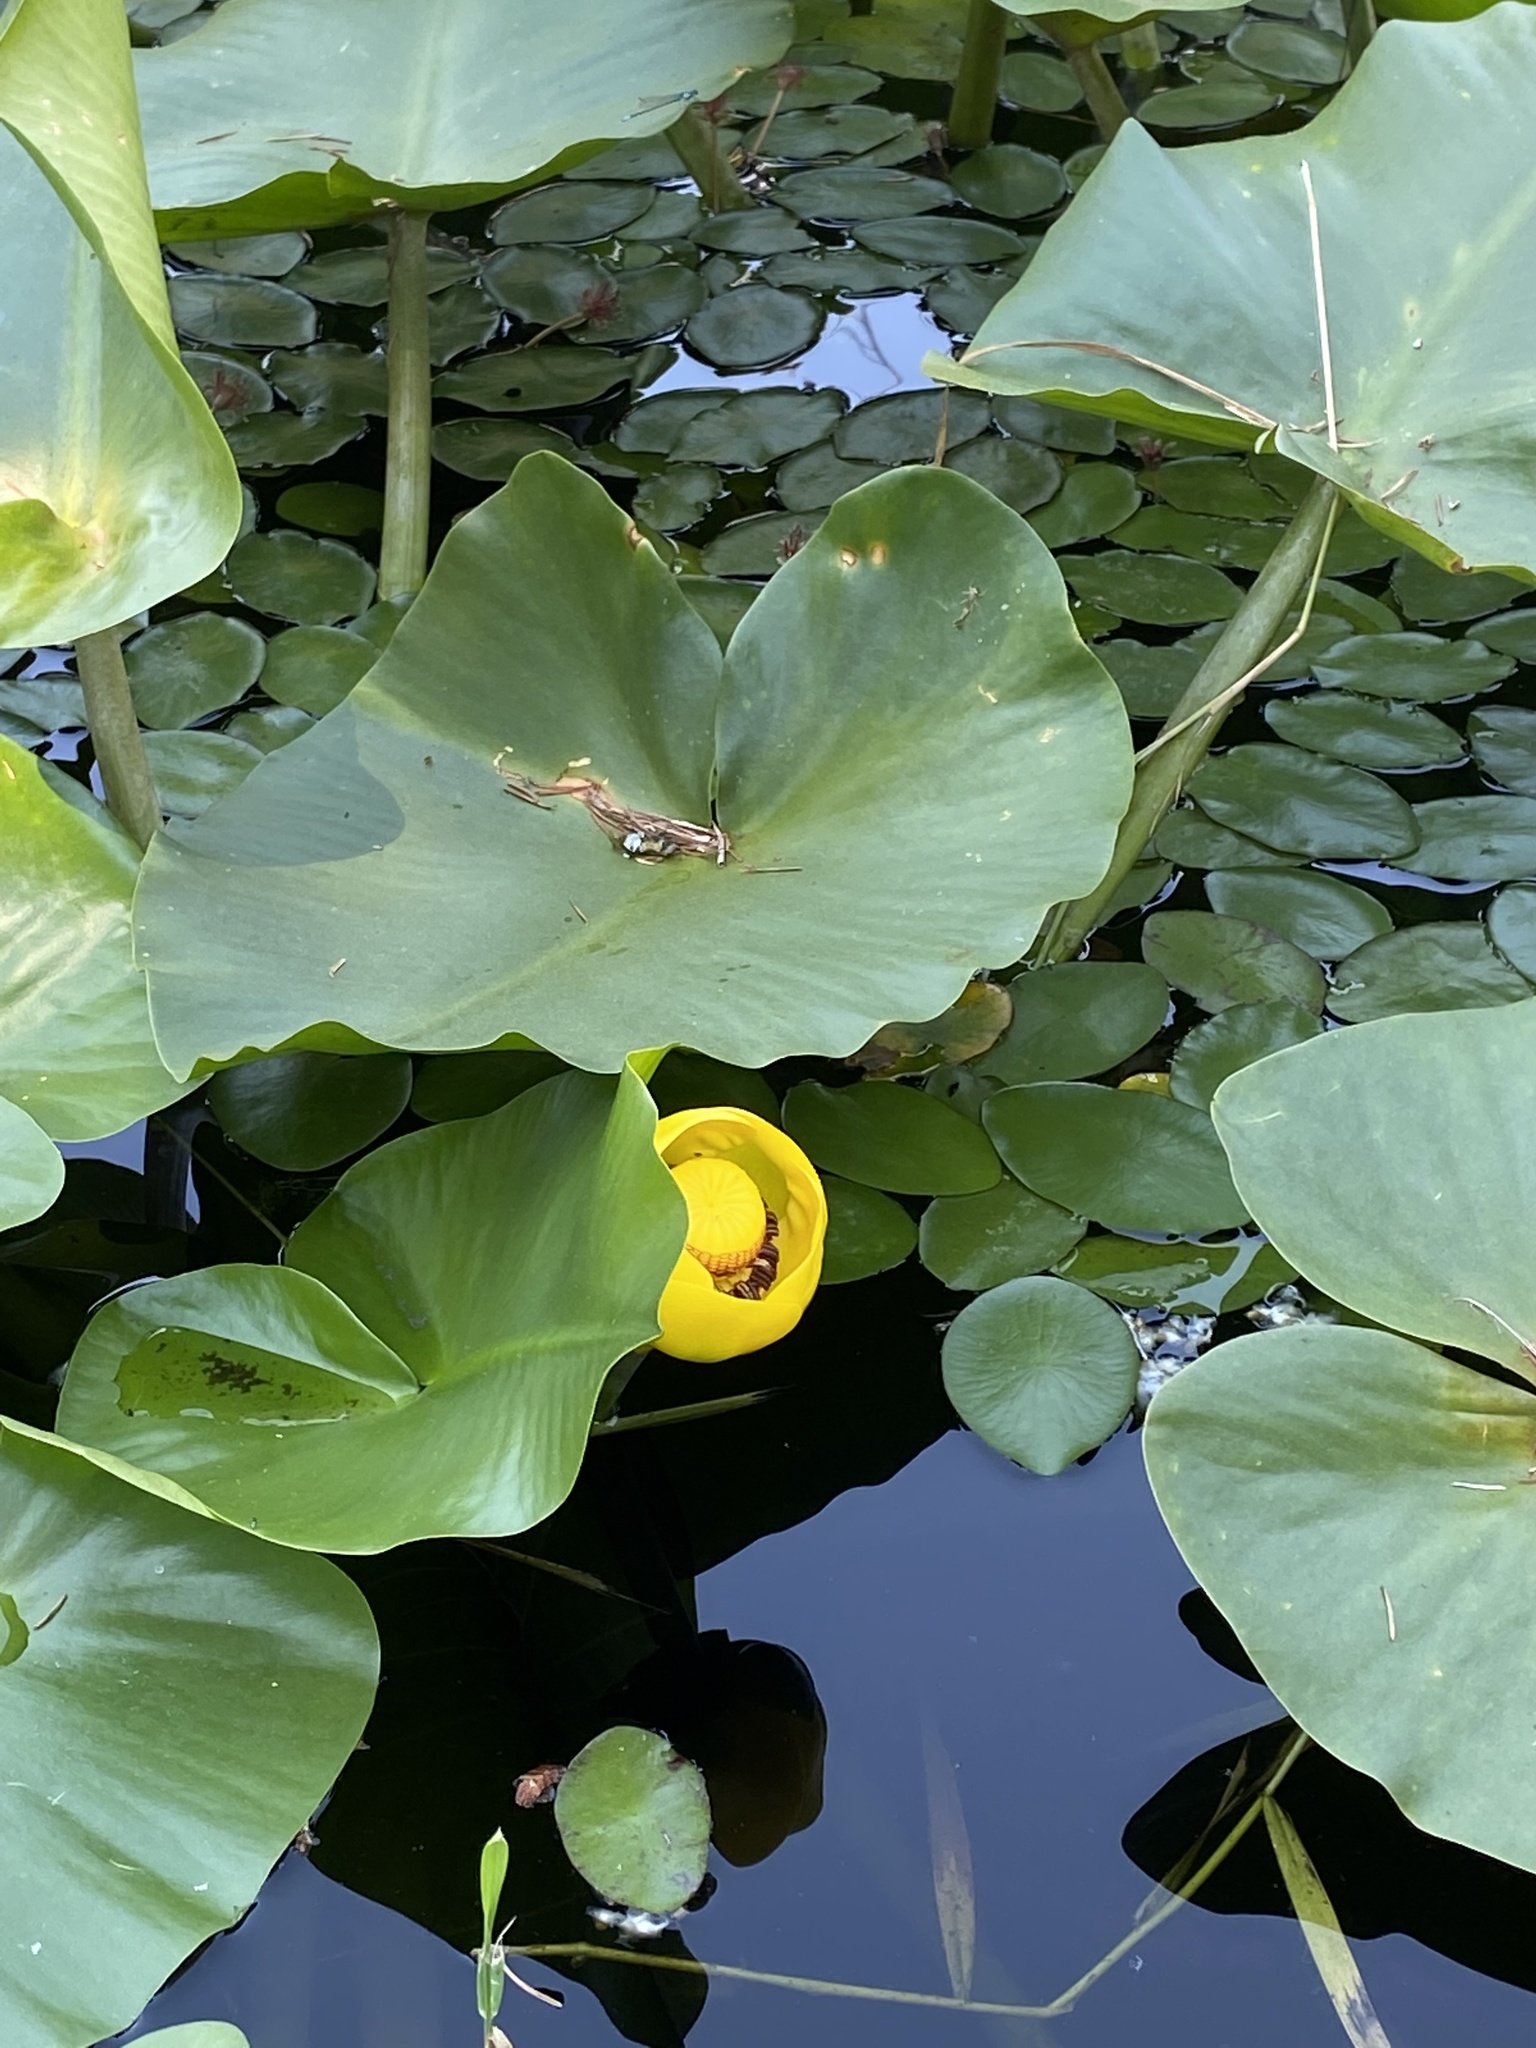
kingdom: Plantae
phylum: Tracheophyta
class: Magnoliopsida
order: Nymphaeales
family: Nymphaeaceae
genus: Nuphar
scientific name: Nuphar polysepala
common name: Rocky mountain cow-lily
